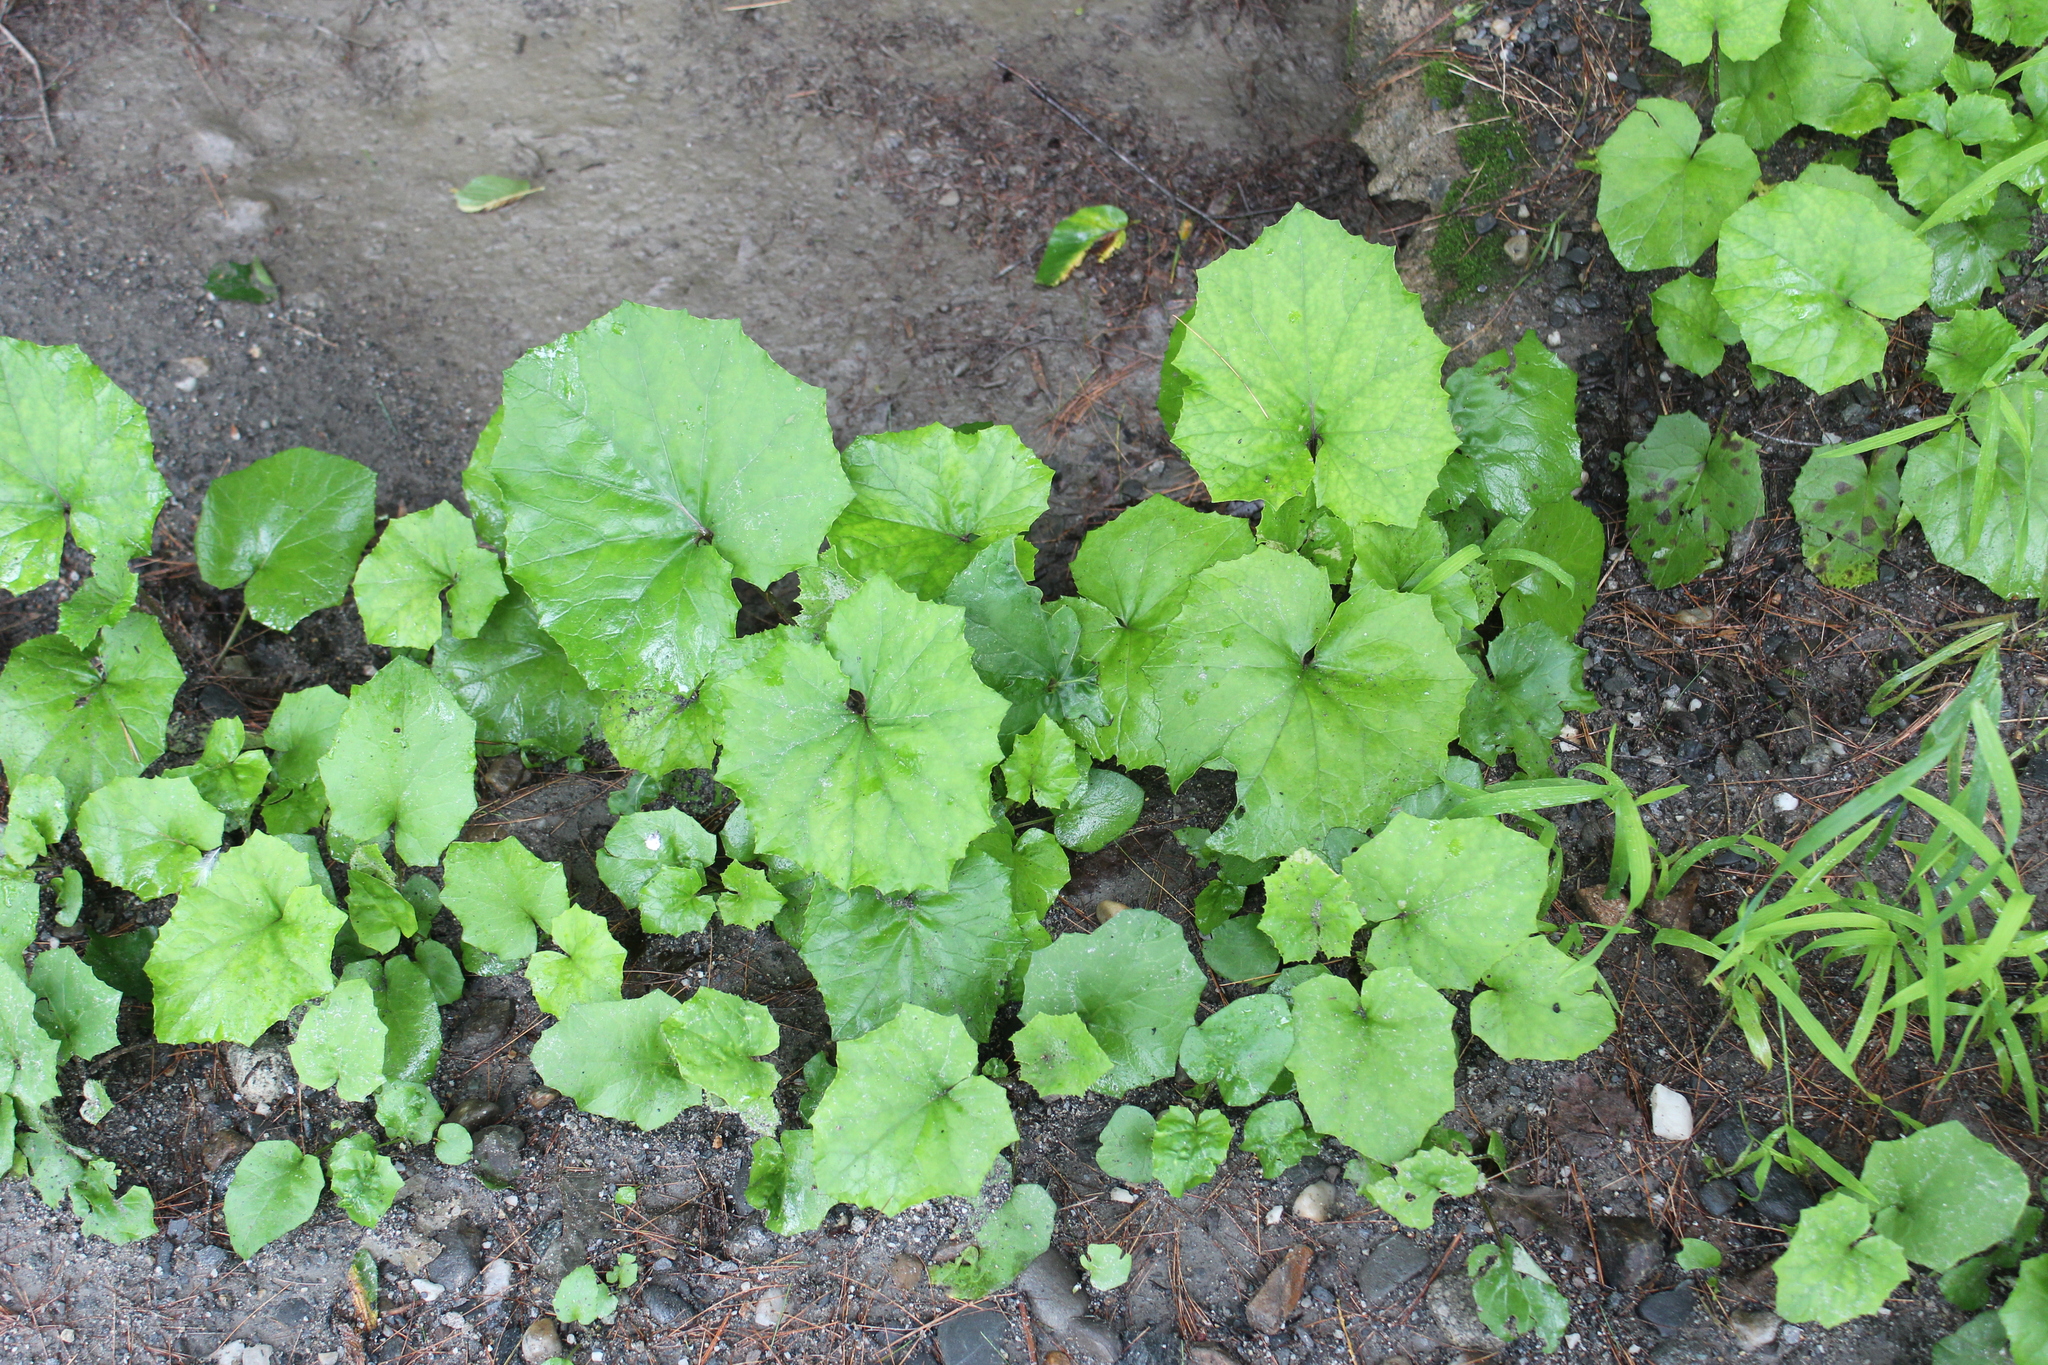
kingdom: Plantae
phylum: Tracheophyta
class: Magnoliopsida
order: Asterales
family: Asteraceae
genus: Tussilago
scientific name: Tussilago farfara
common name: Coltsfoot
